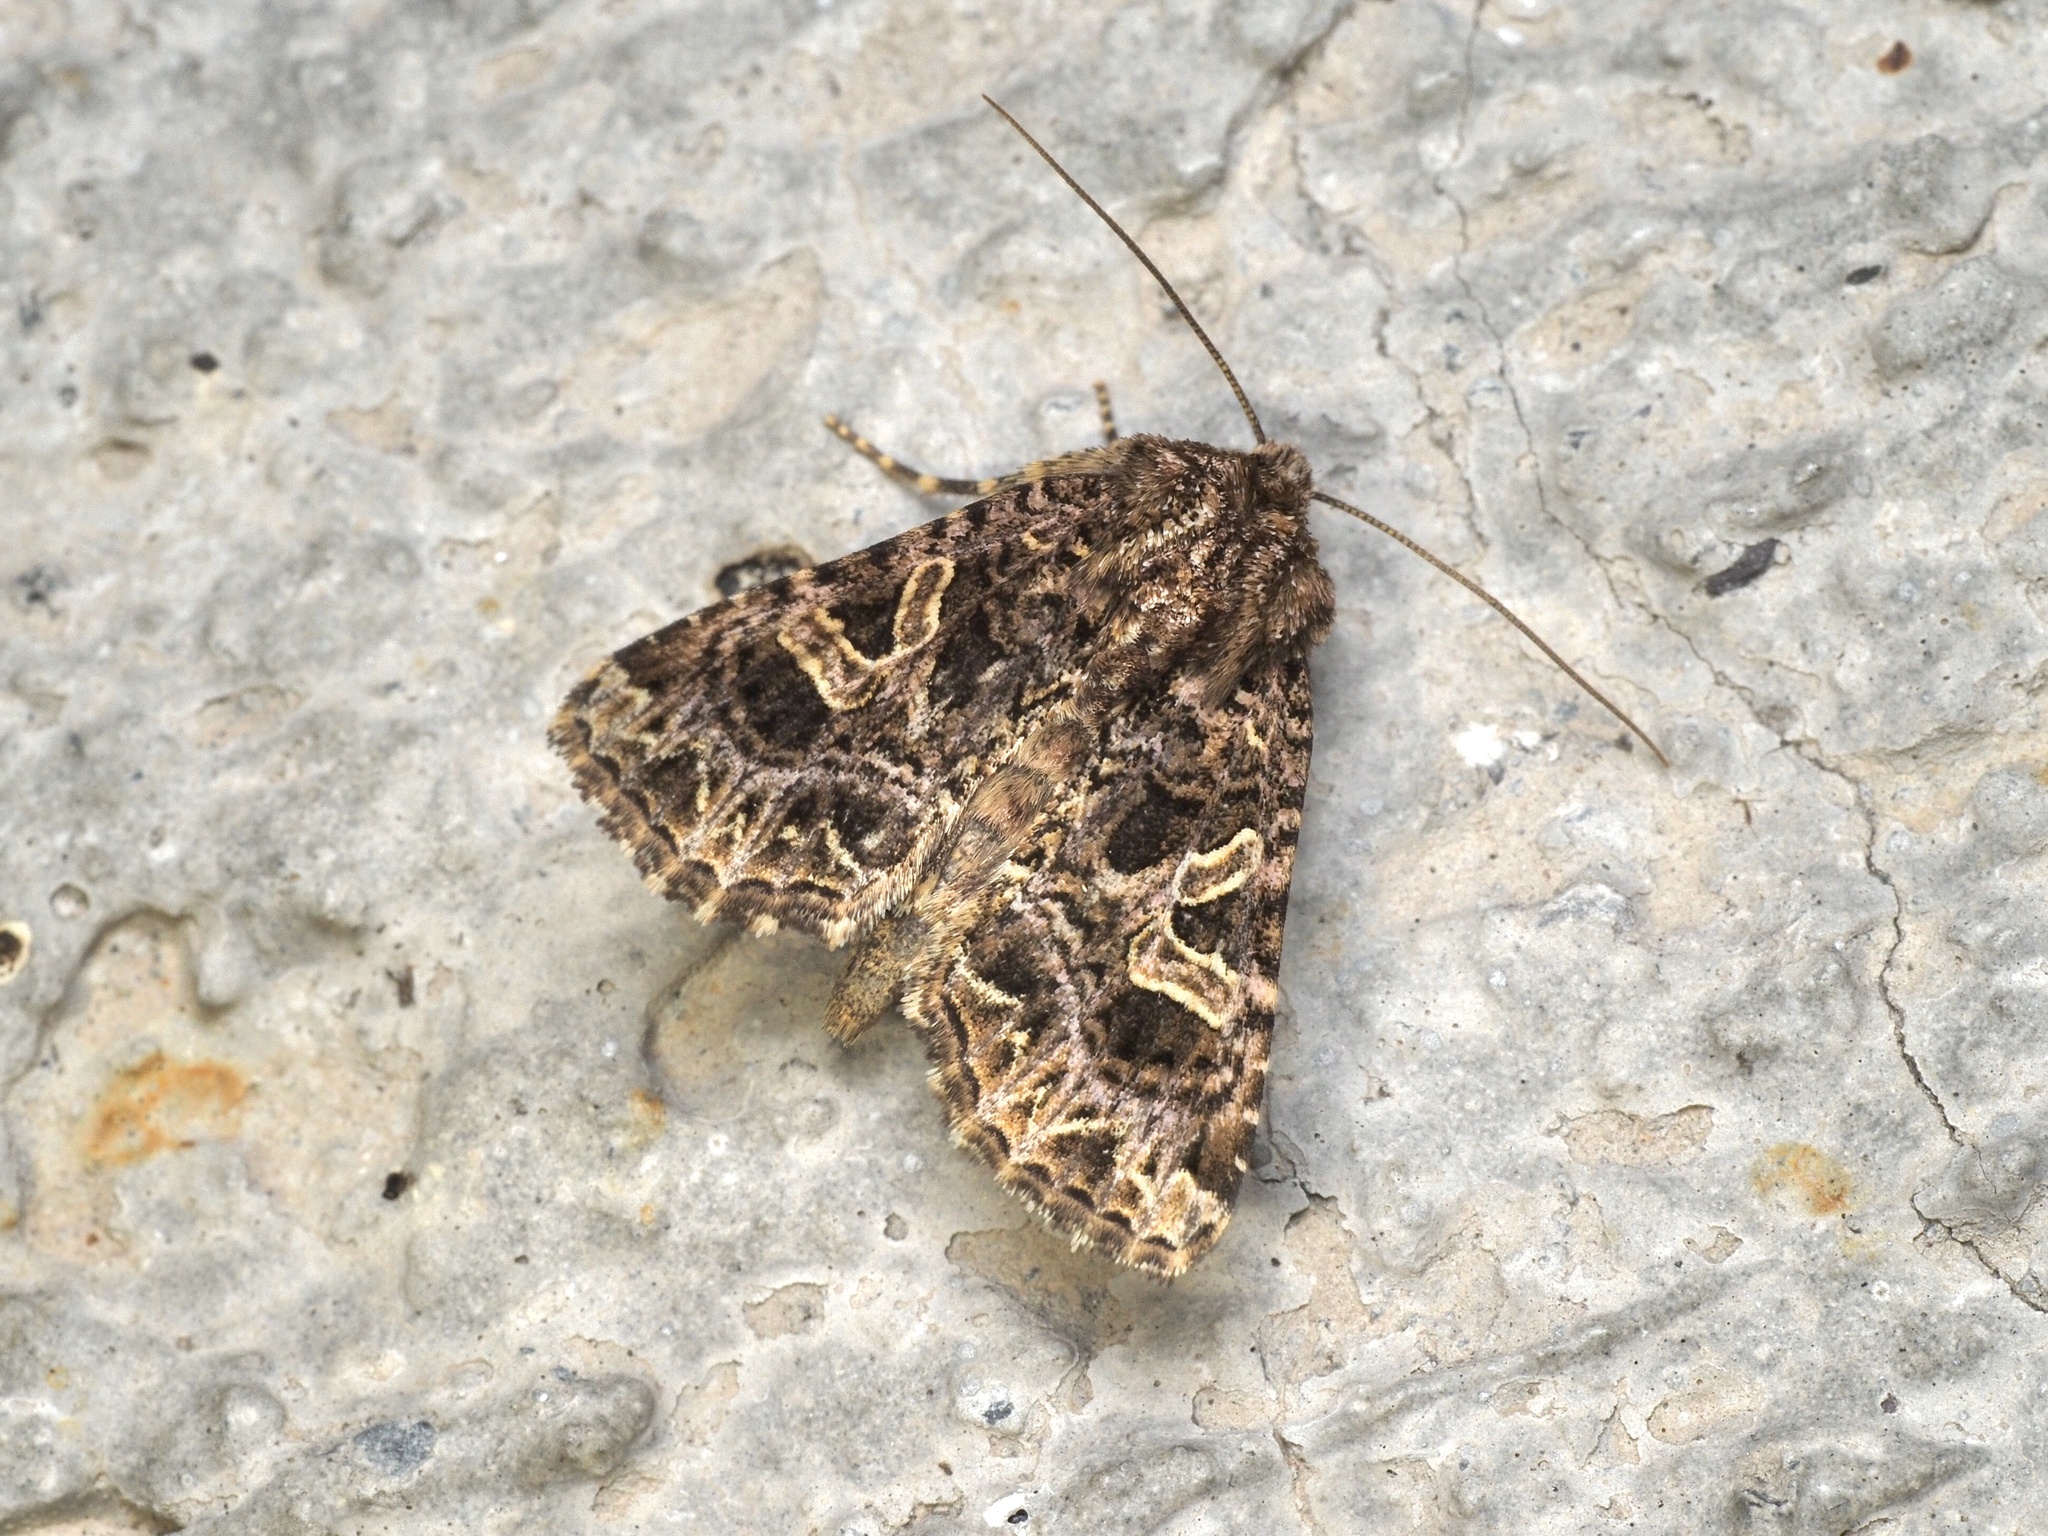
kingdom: Animalia
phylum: Arthropoda
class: Insecta
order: Lepidoptera
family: Noctuidae
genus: Sideridis
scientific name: Sideridis rivularis
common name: Campion
